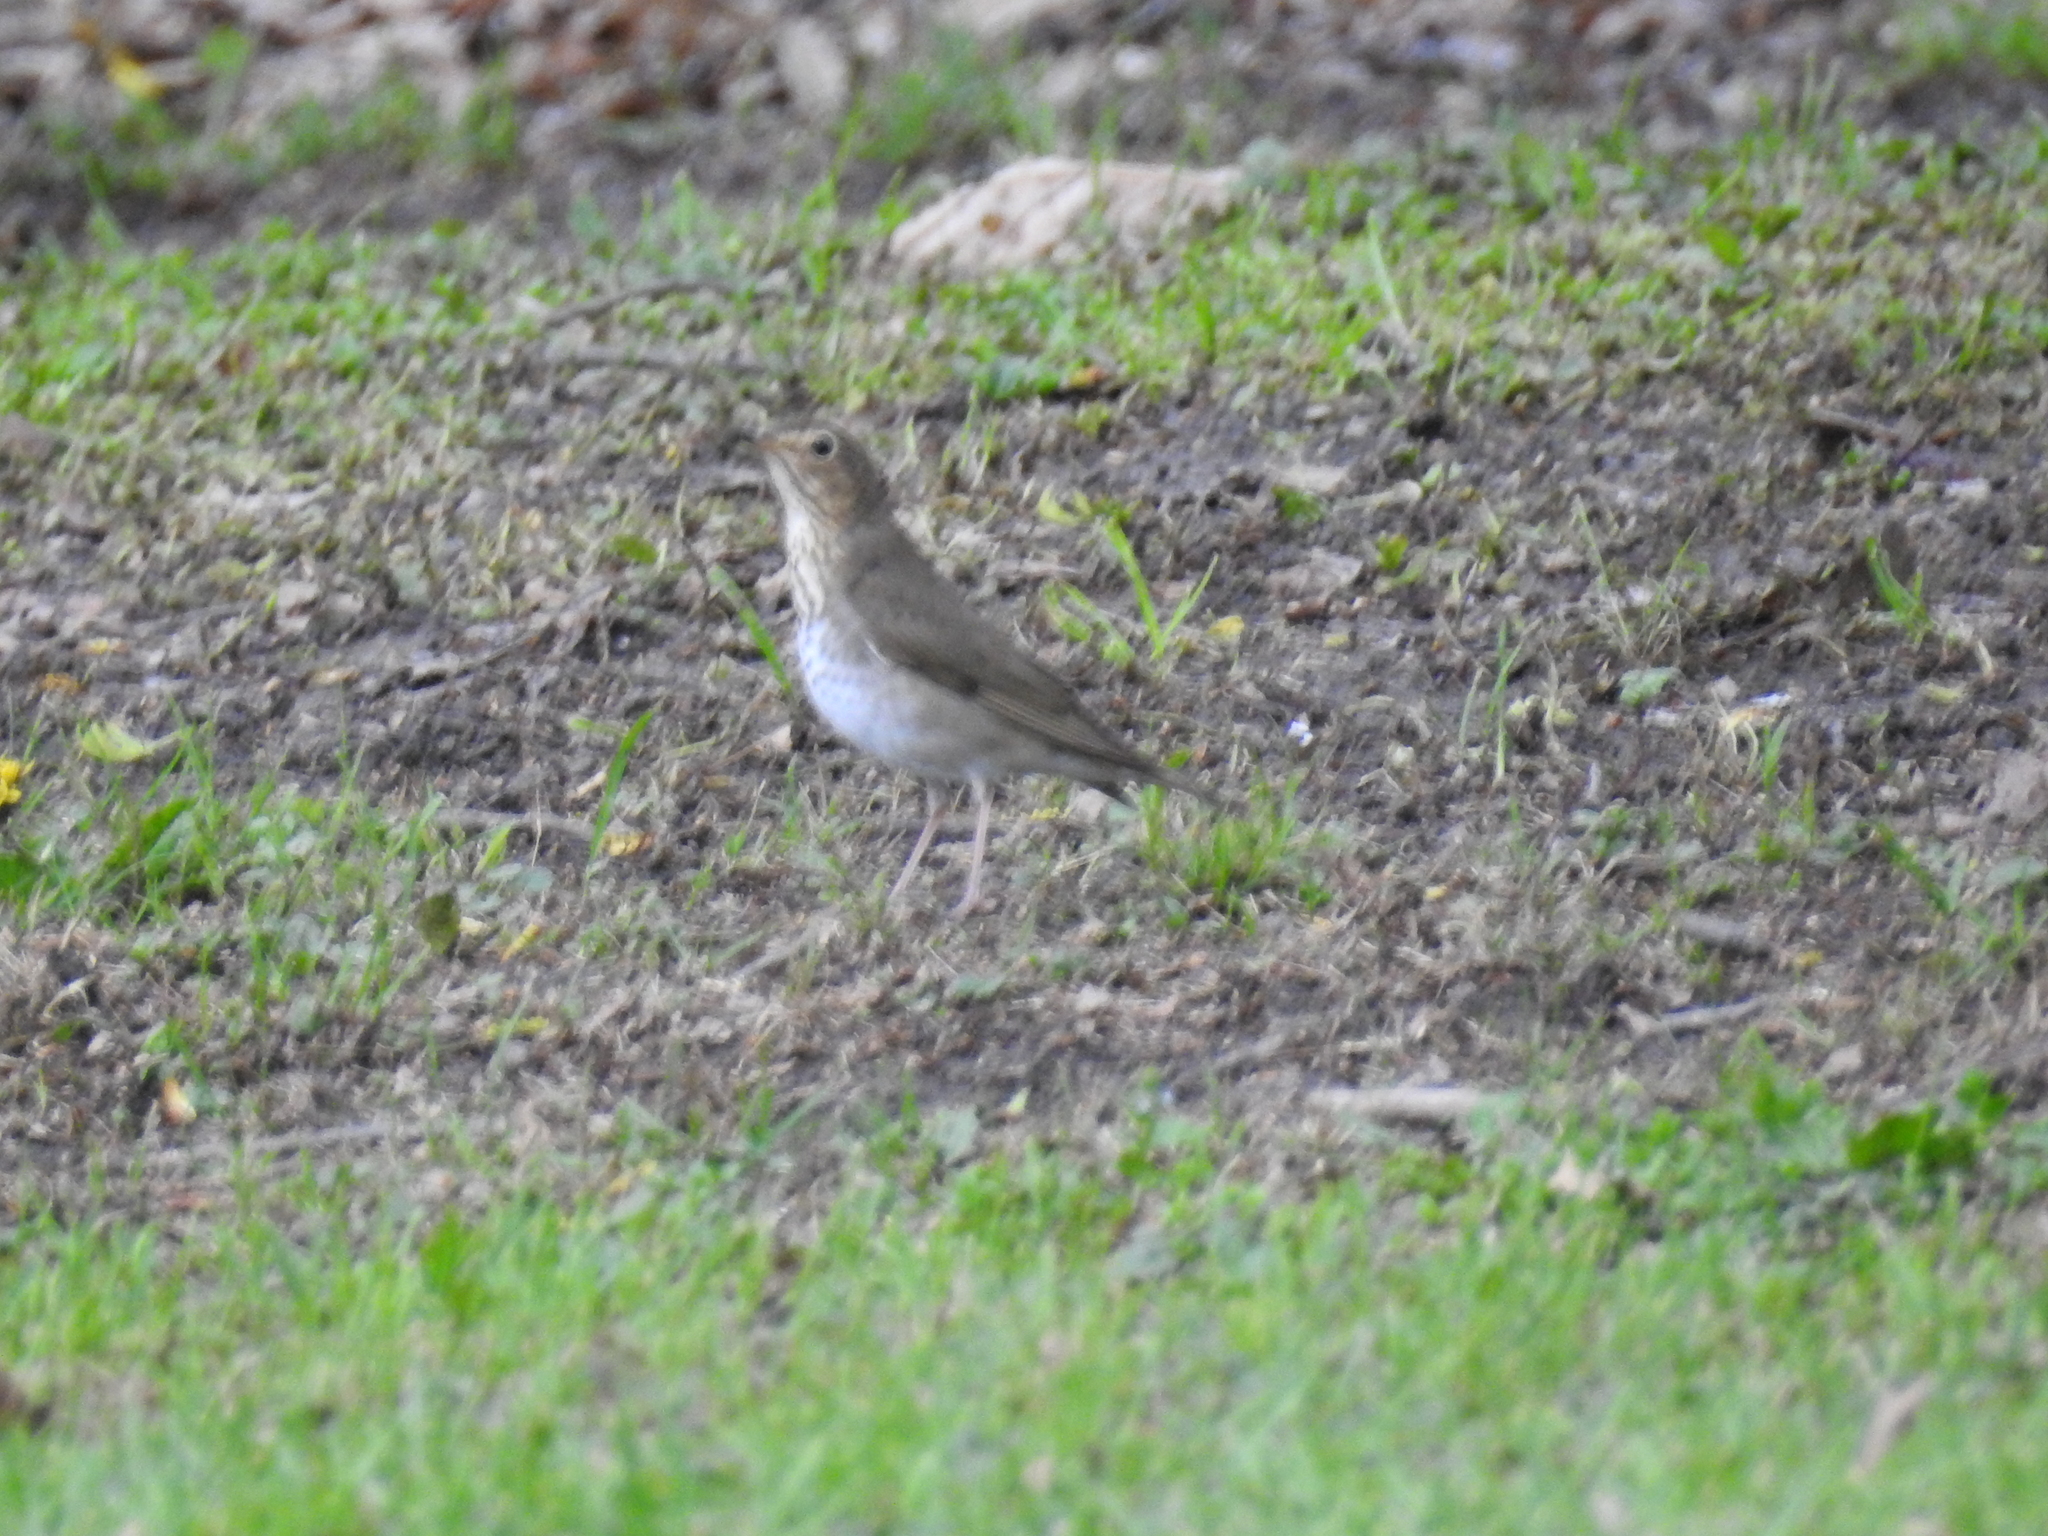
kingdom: Animalia
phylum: Chordata
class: Aves
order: Passeriformes
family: Turdidae
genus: Catharus
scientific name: Catharus ustulatus
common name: Swainson's thrush
